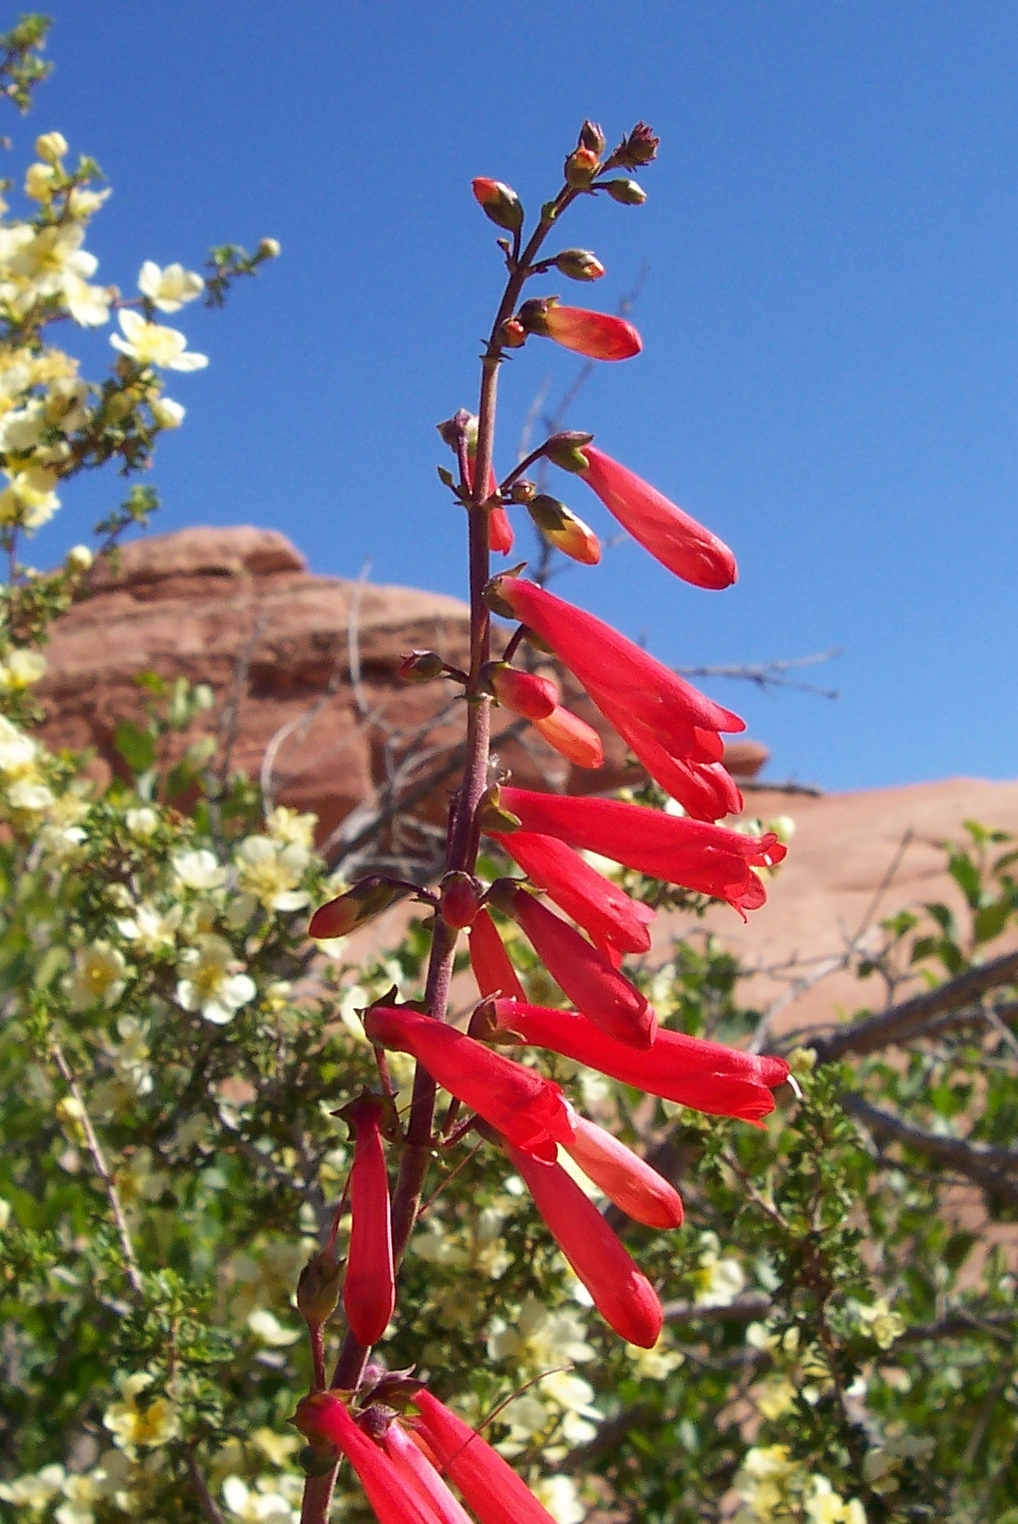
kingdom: Plantae
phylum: Tracheophyta
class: Magnoliopsida
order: Lamiales
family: Plantaginaceae
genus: Penstemon
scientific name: Penstemon eatonii
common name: Eaton's penstemon
